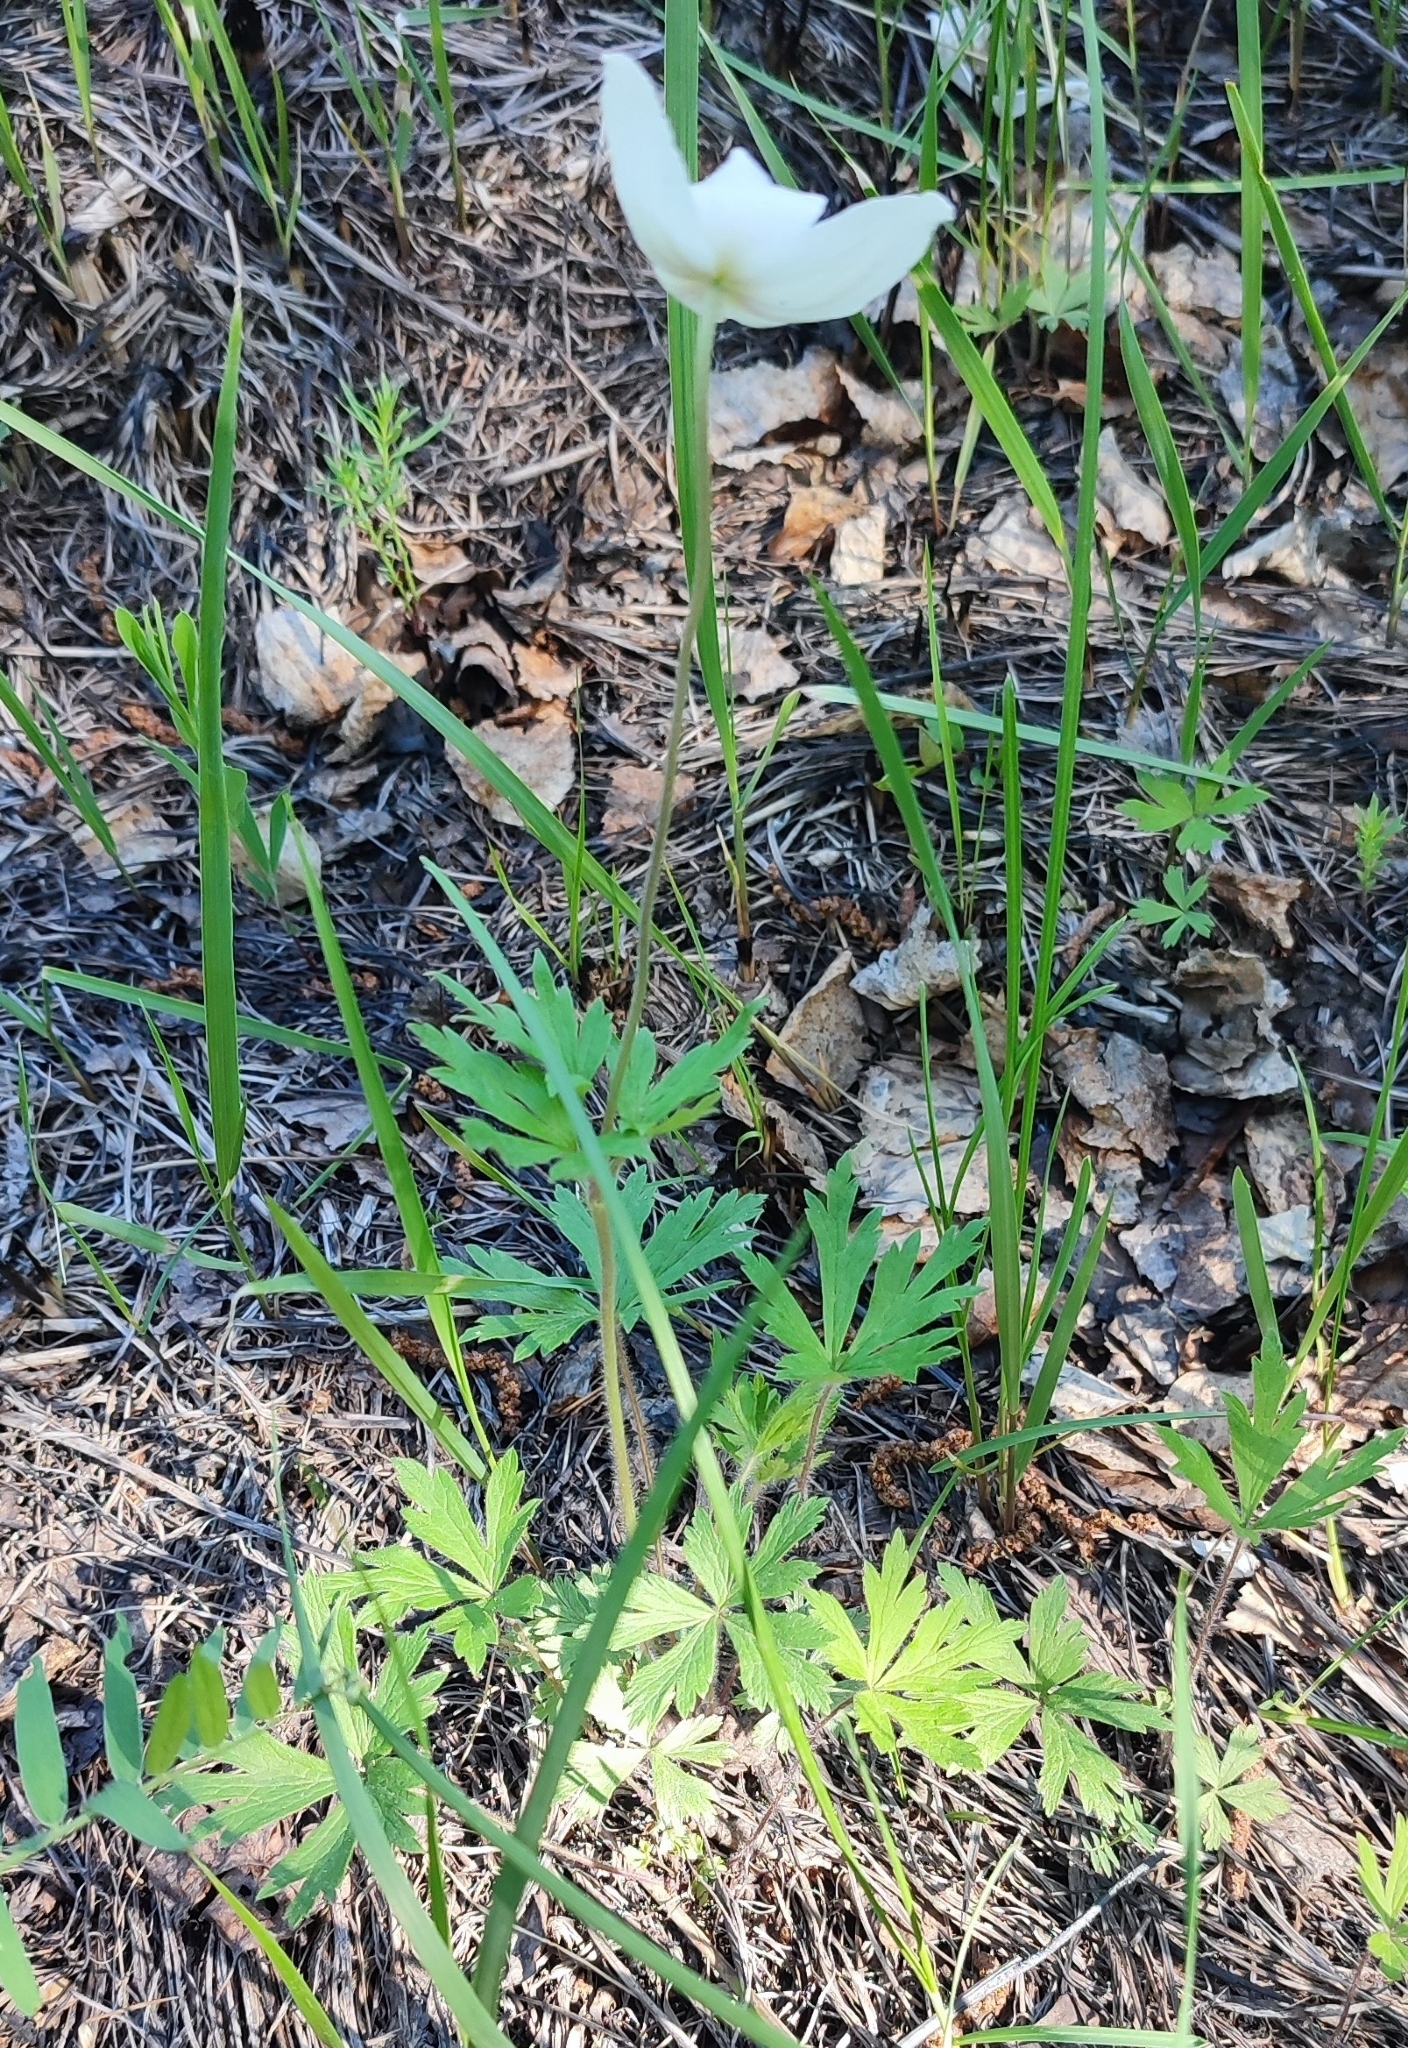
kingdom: Plantae
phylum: Tracheophyta
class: Magnoliopsida
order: Ranunculales
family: Ranunculaceae
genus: Anemone
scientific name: Anemone sylvestris
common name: Snowdrop anemone
